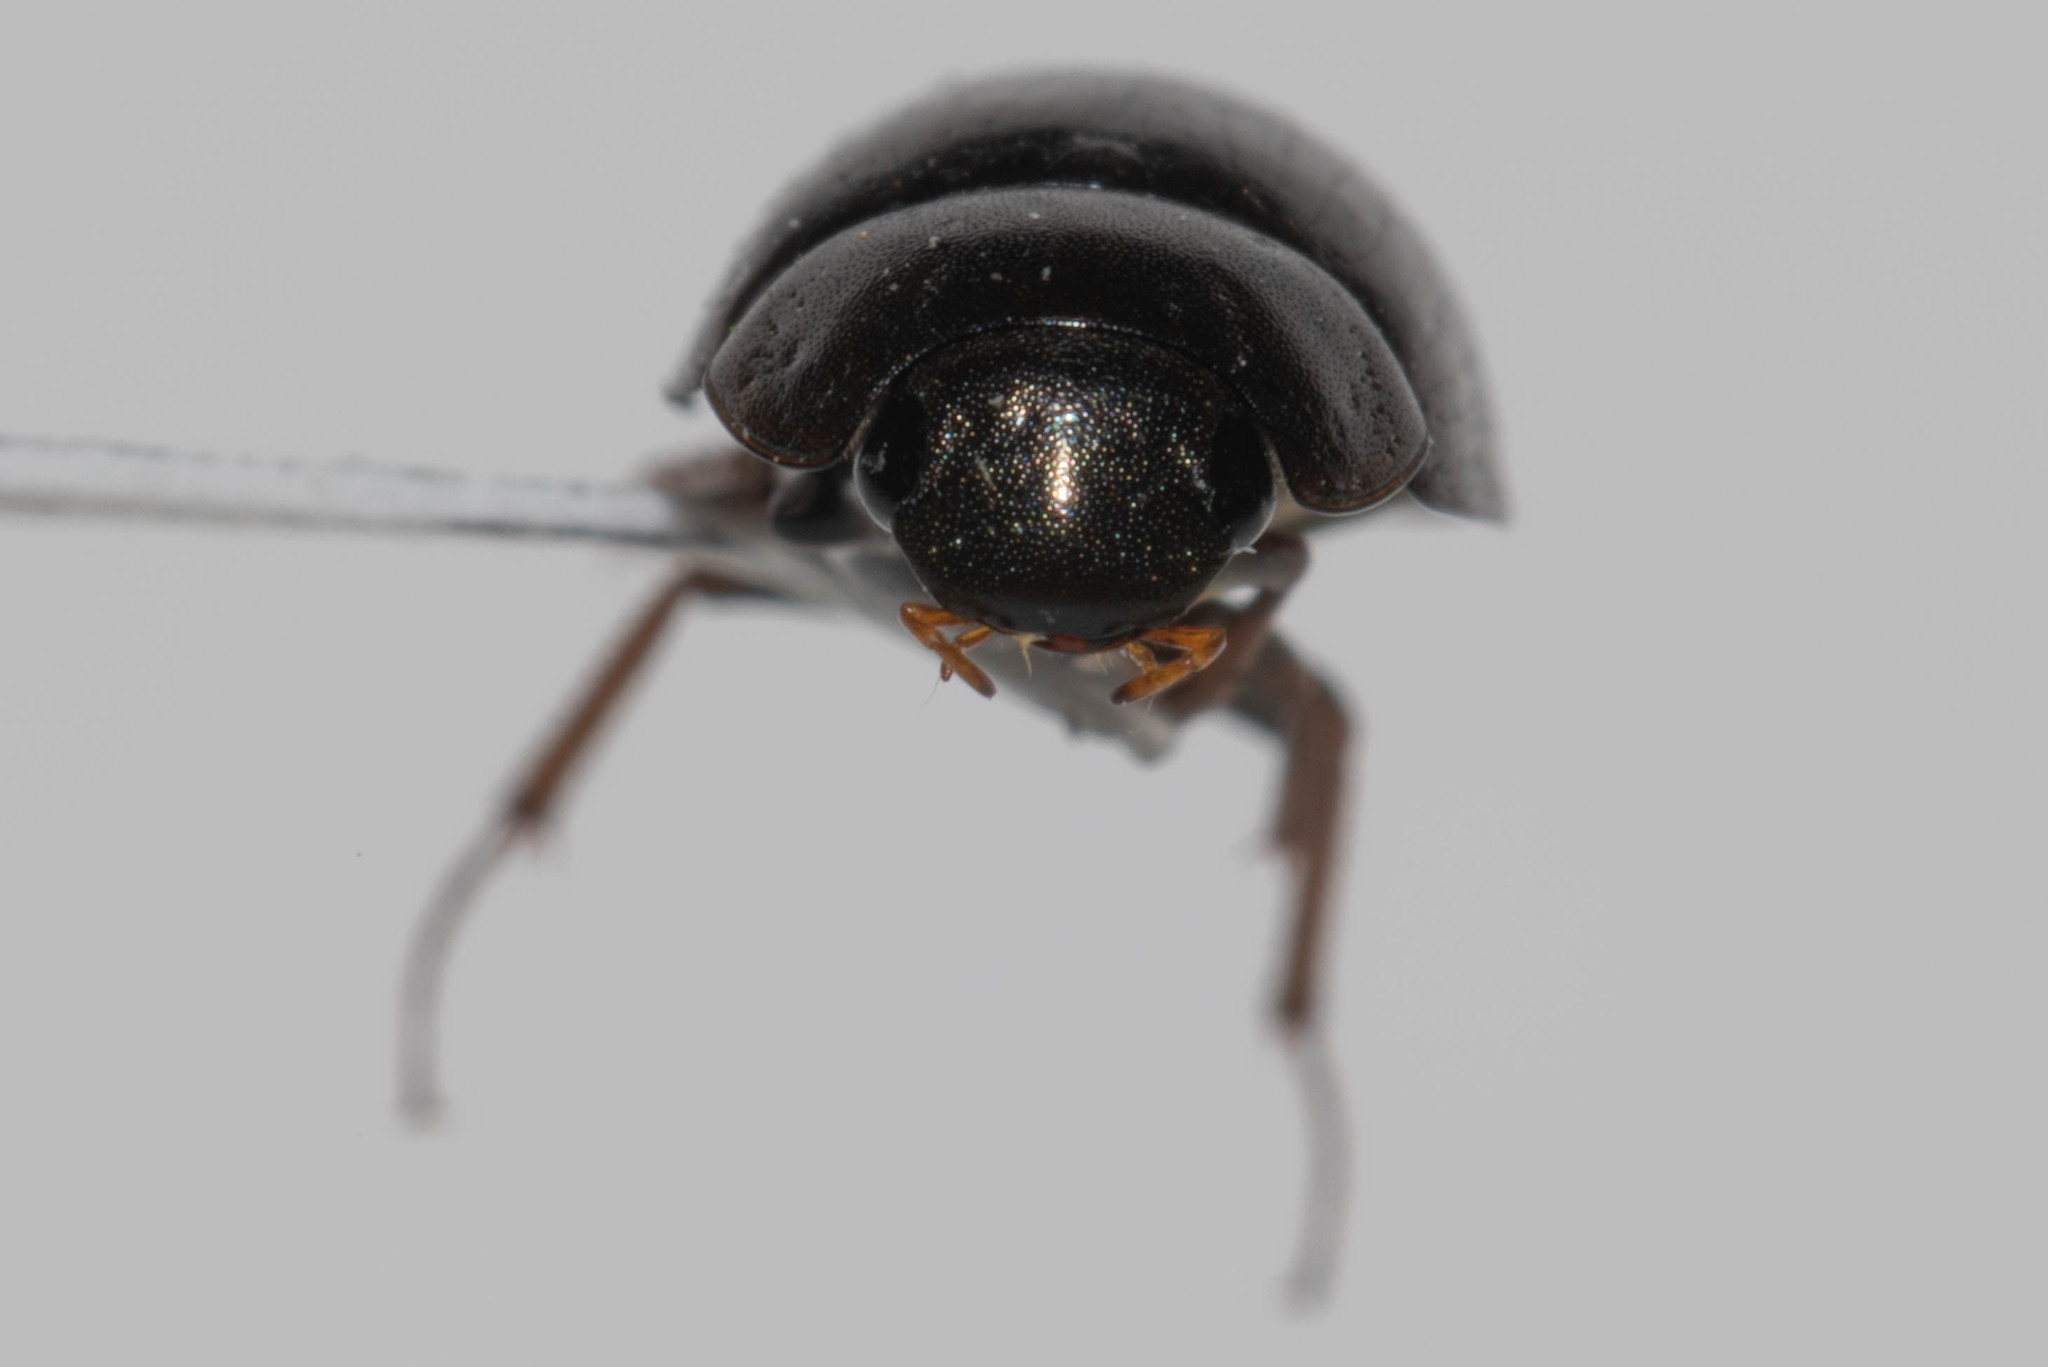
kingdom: Animalia
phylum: Arthropoda
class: Insecta
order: Coleoptera
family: Hydrophilidae
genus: Hydrobius
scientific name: Hydrobius fuscipes
